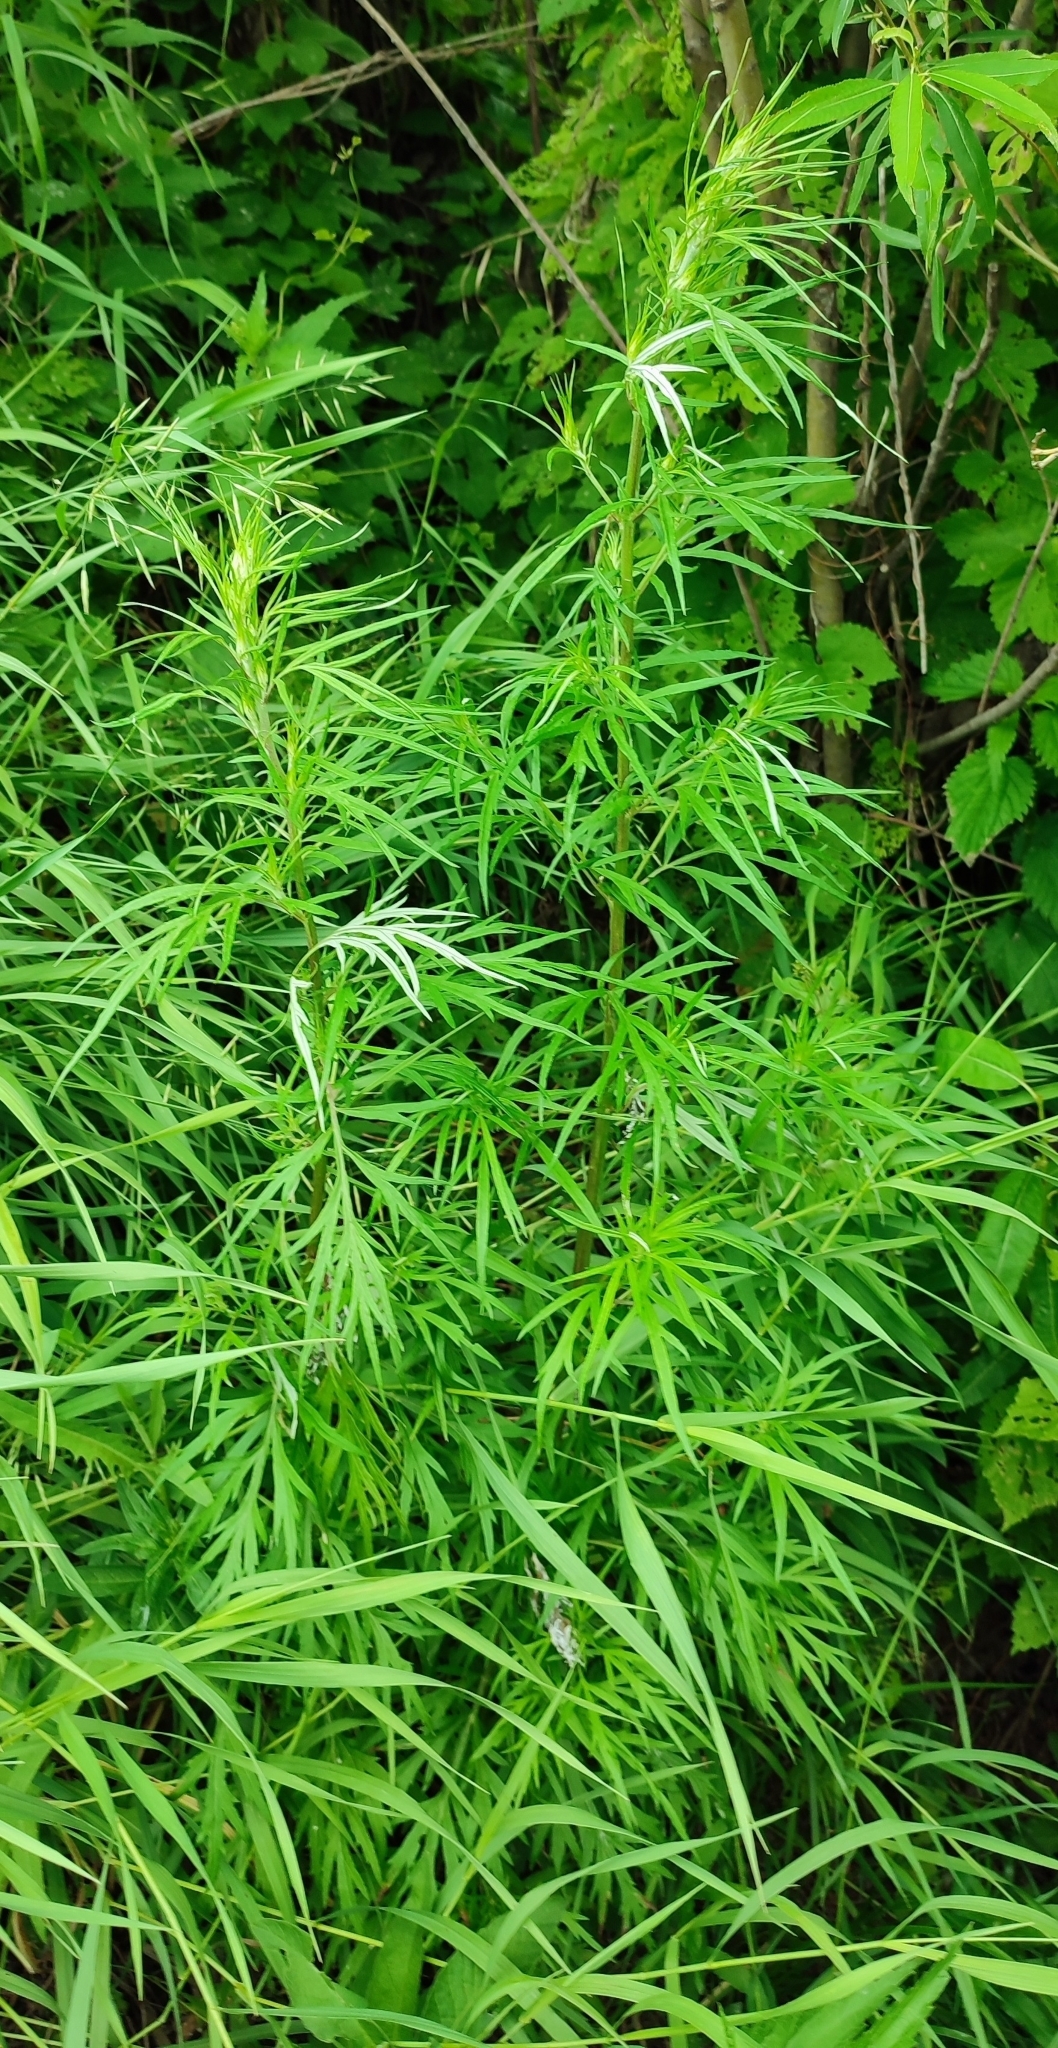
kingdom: Plantae
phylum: Tracheophyta
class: Magnoliopsida
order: Asterales
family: Asteraceae
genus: Artemisia
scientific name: Artemisia vulgaris
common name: Mugwort
